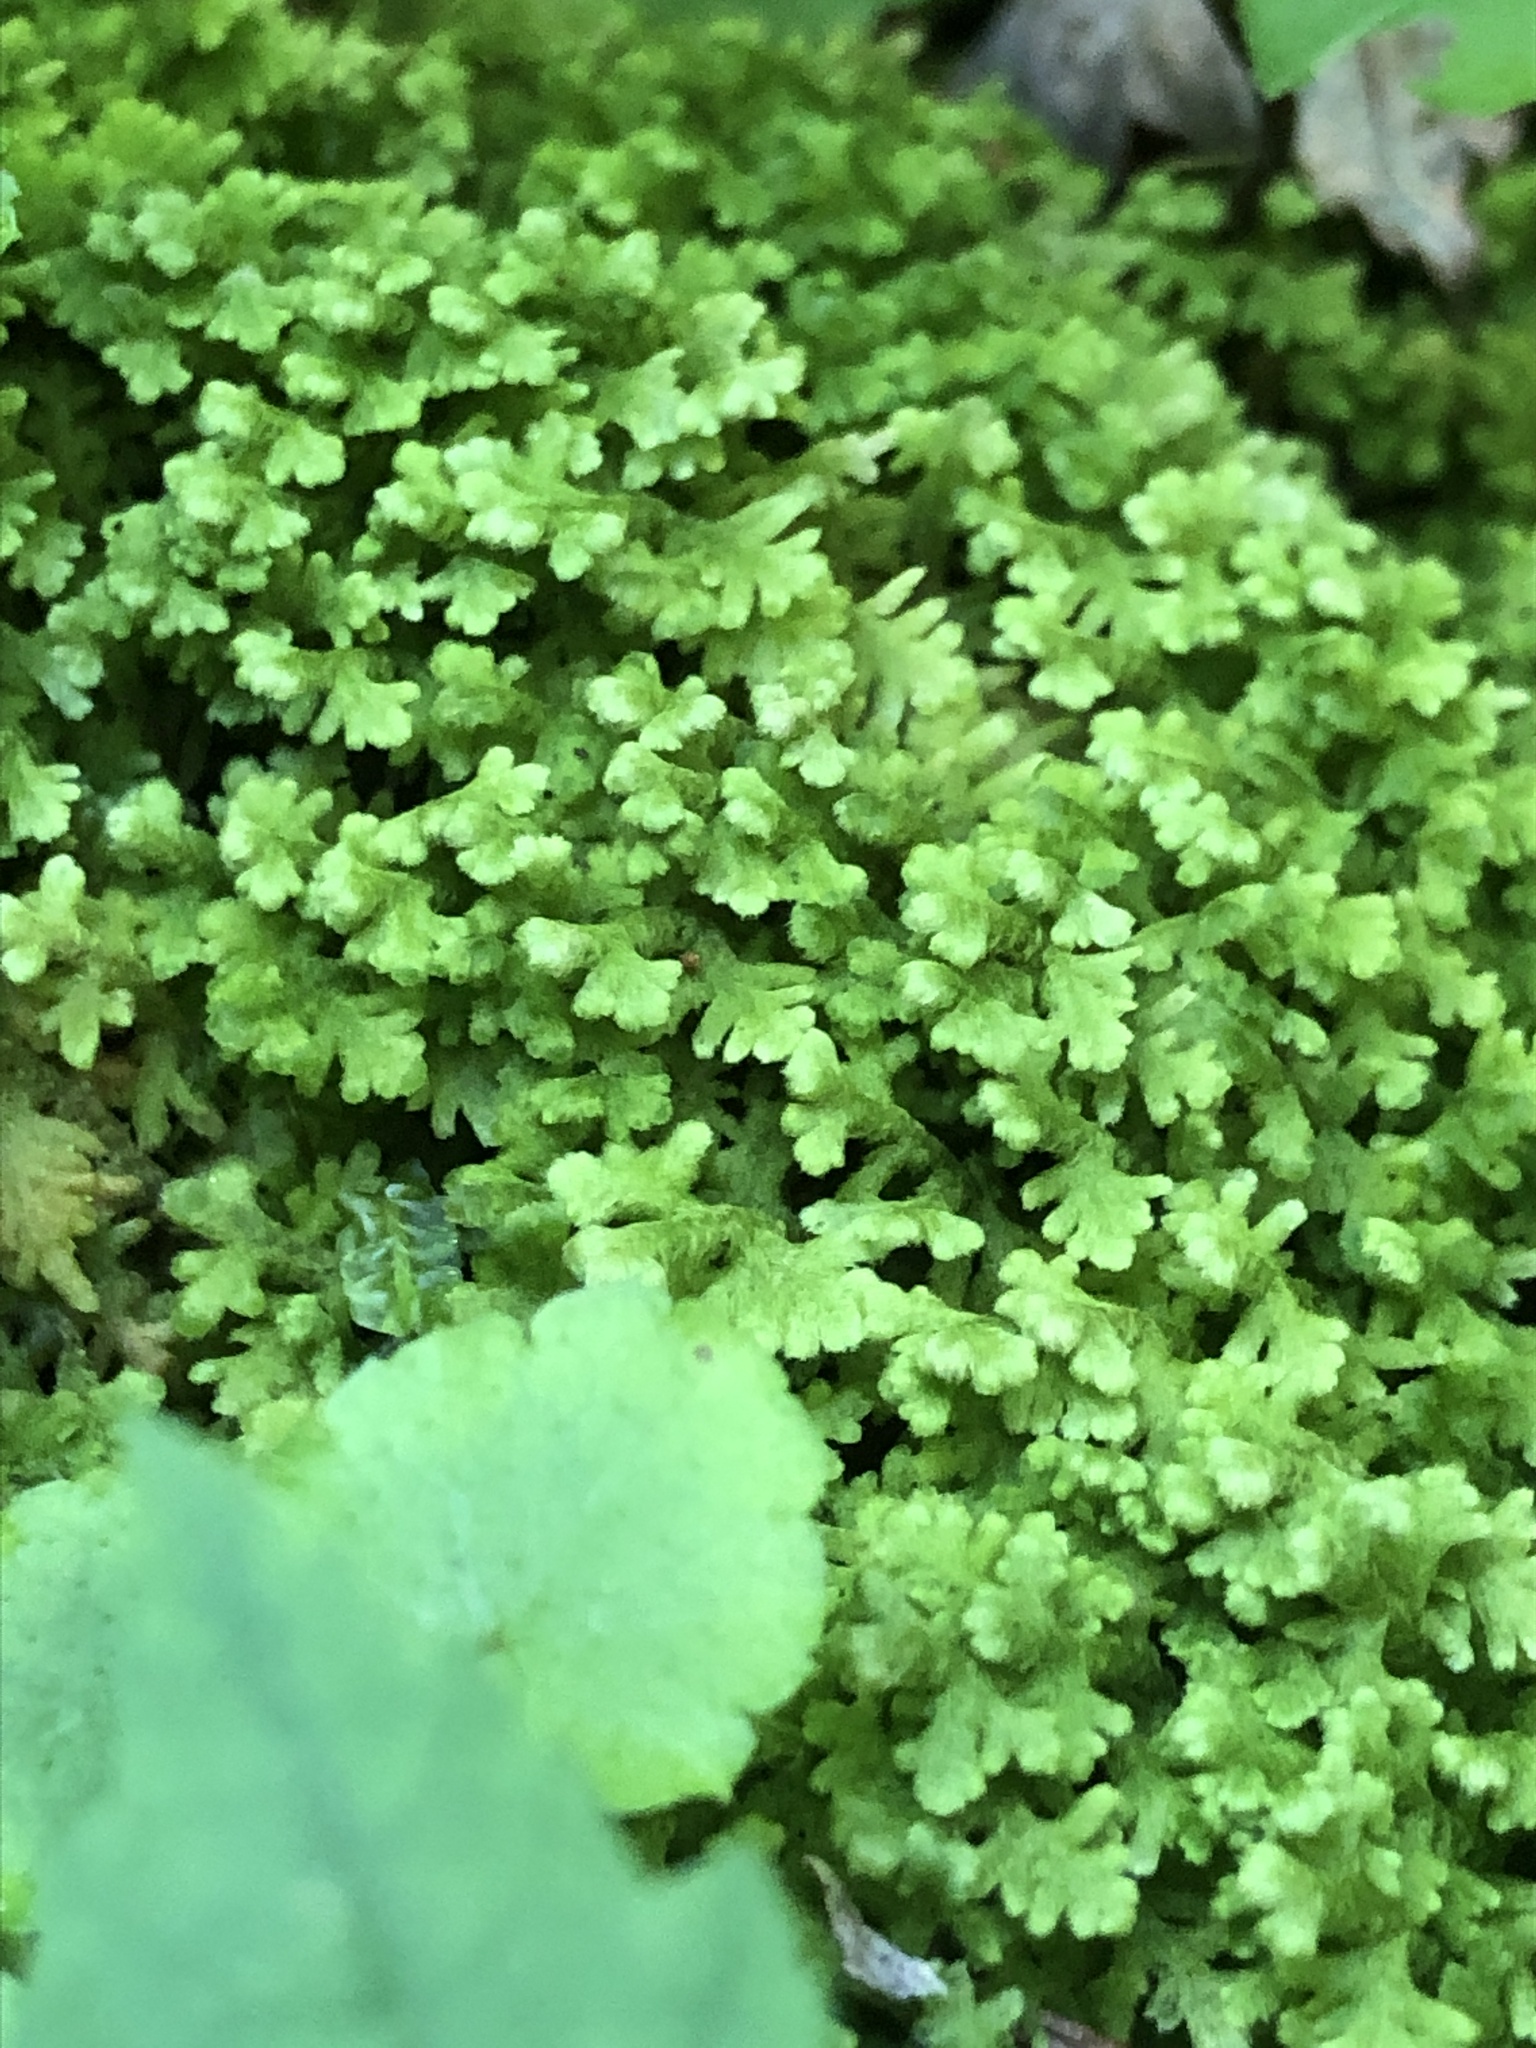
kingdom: Plantae
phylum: Marchantiophyta
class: Jungermanniopsida
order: Jungermanniales
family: Trichocoleaceae
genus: Trichocolea
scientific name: Trichocolea tomentella
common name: Woolly liverwort
